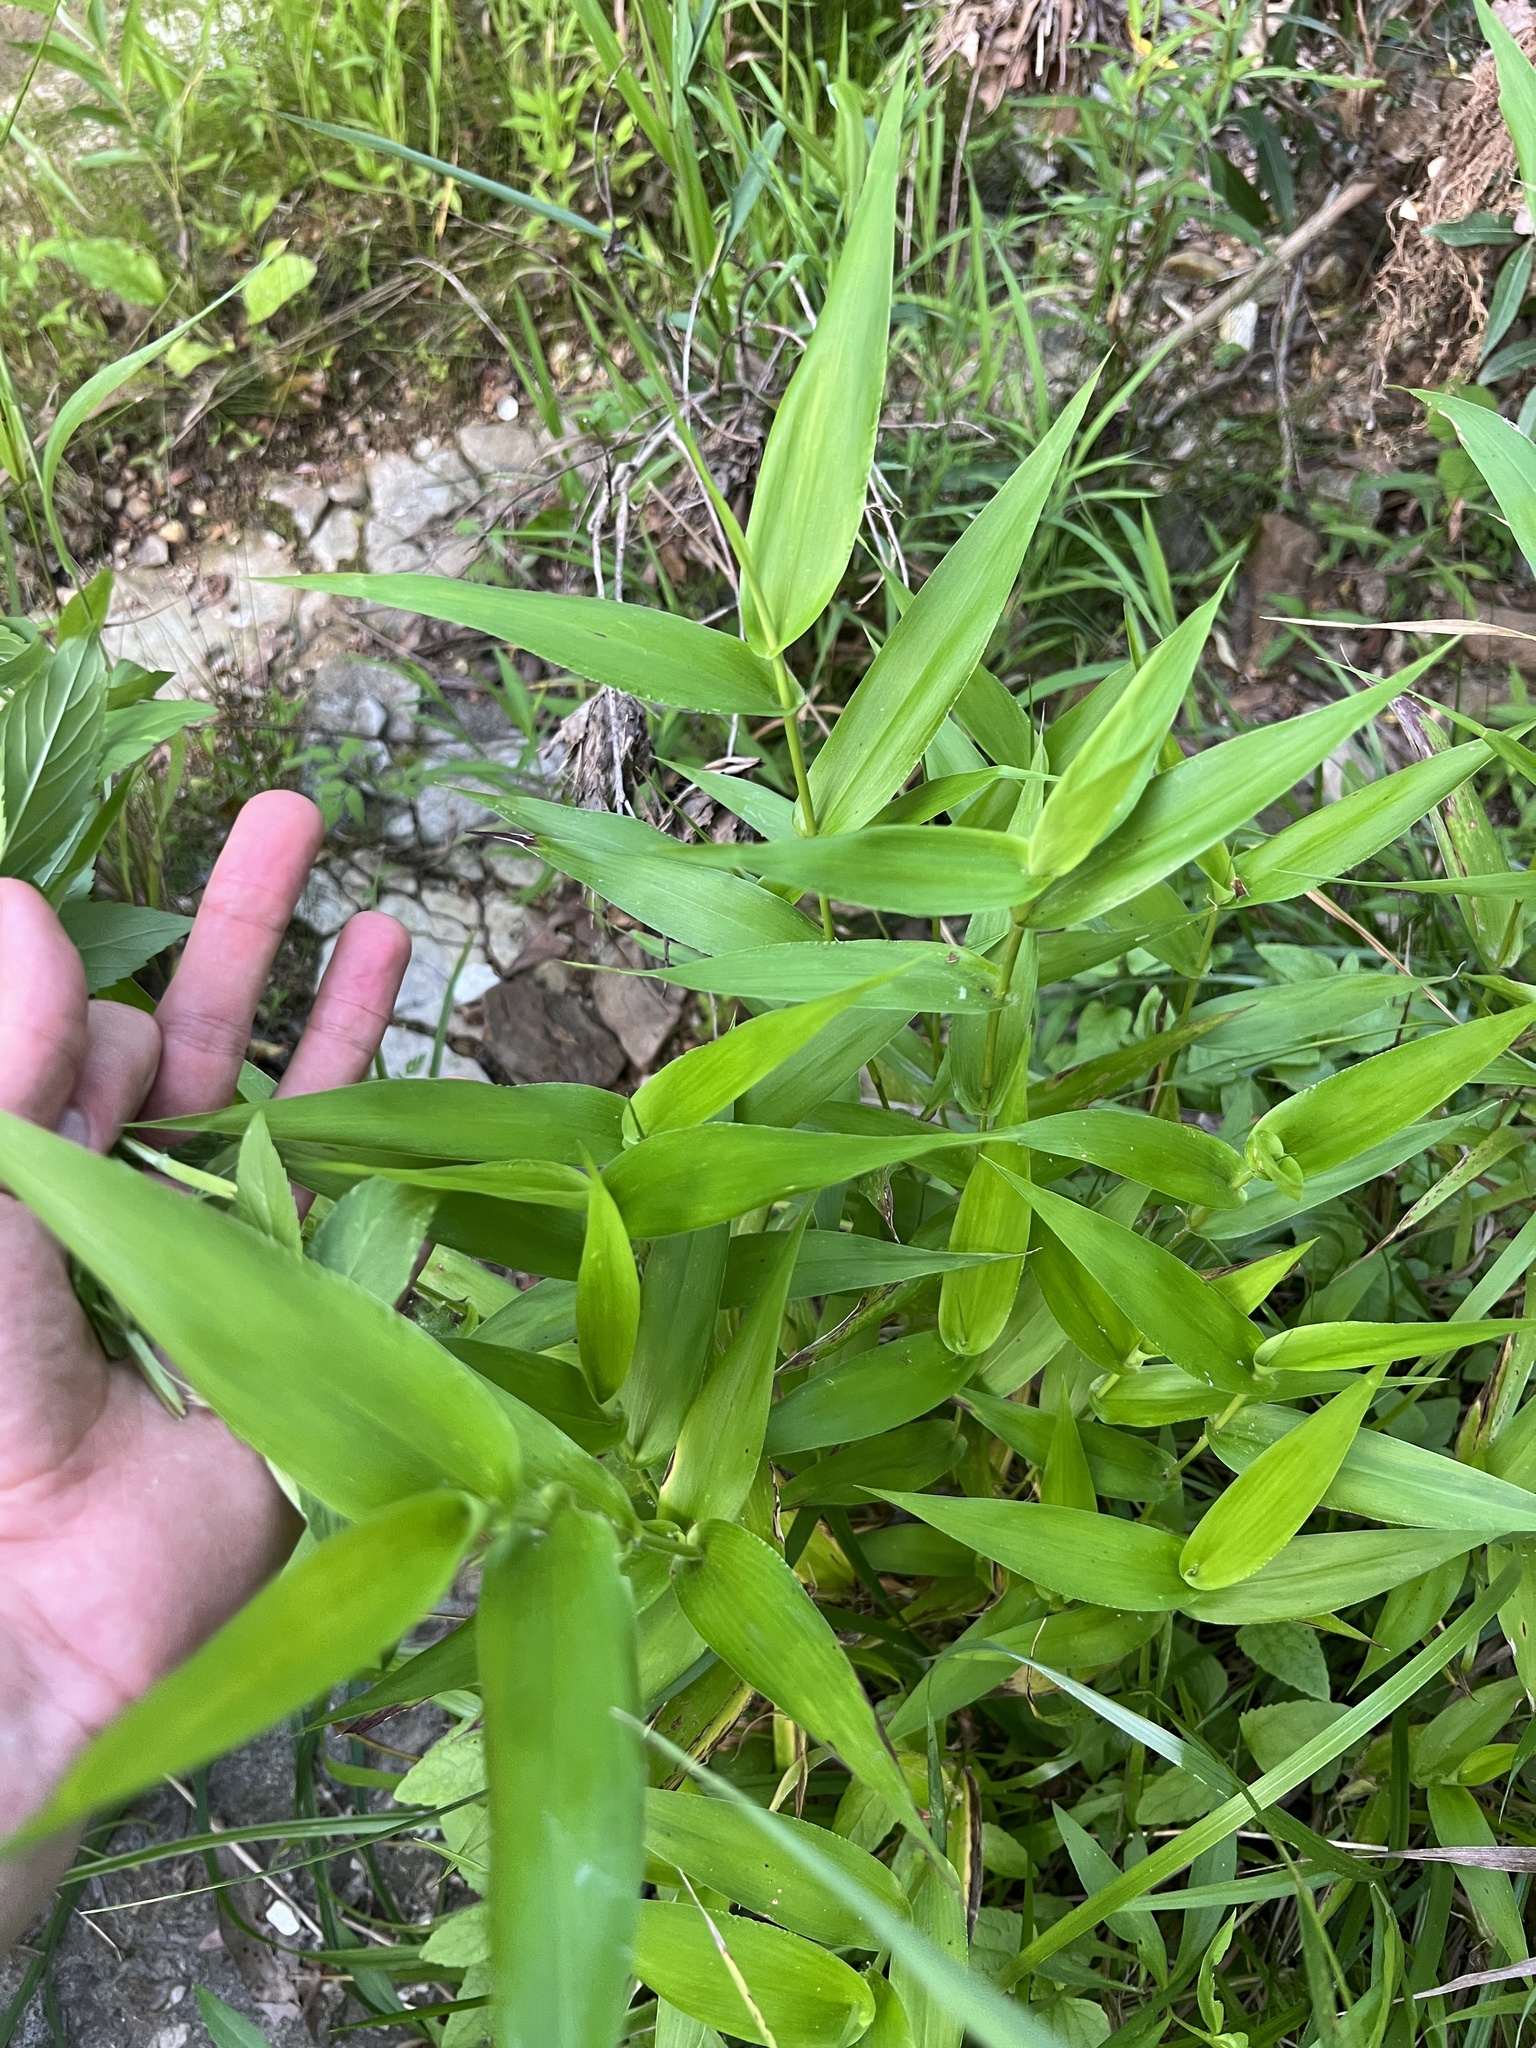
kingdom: Plantae
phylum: Tracheophyta
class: Liliopsida
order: Poales
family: Poaceae
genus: Dichanthelium
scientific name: Dichanthelium latifolium
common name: Broad-leaved panicgrass
